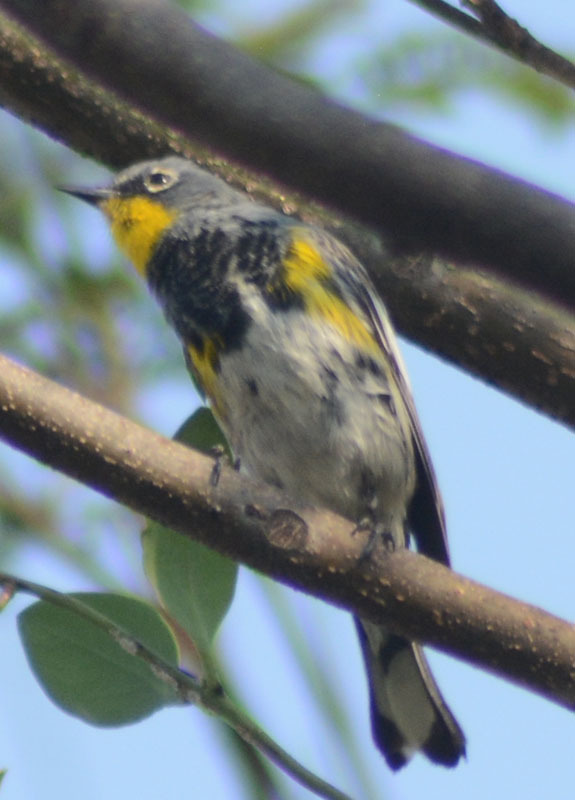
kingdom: Animalia
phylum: Chordata
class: Aves
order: Passeriformes
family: Parulidae
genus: Setophaga
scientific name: Setophaga auduboni
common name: Audubon's warbler
